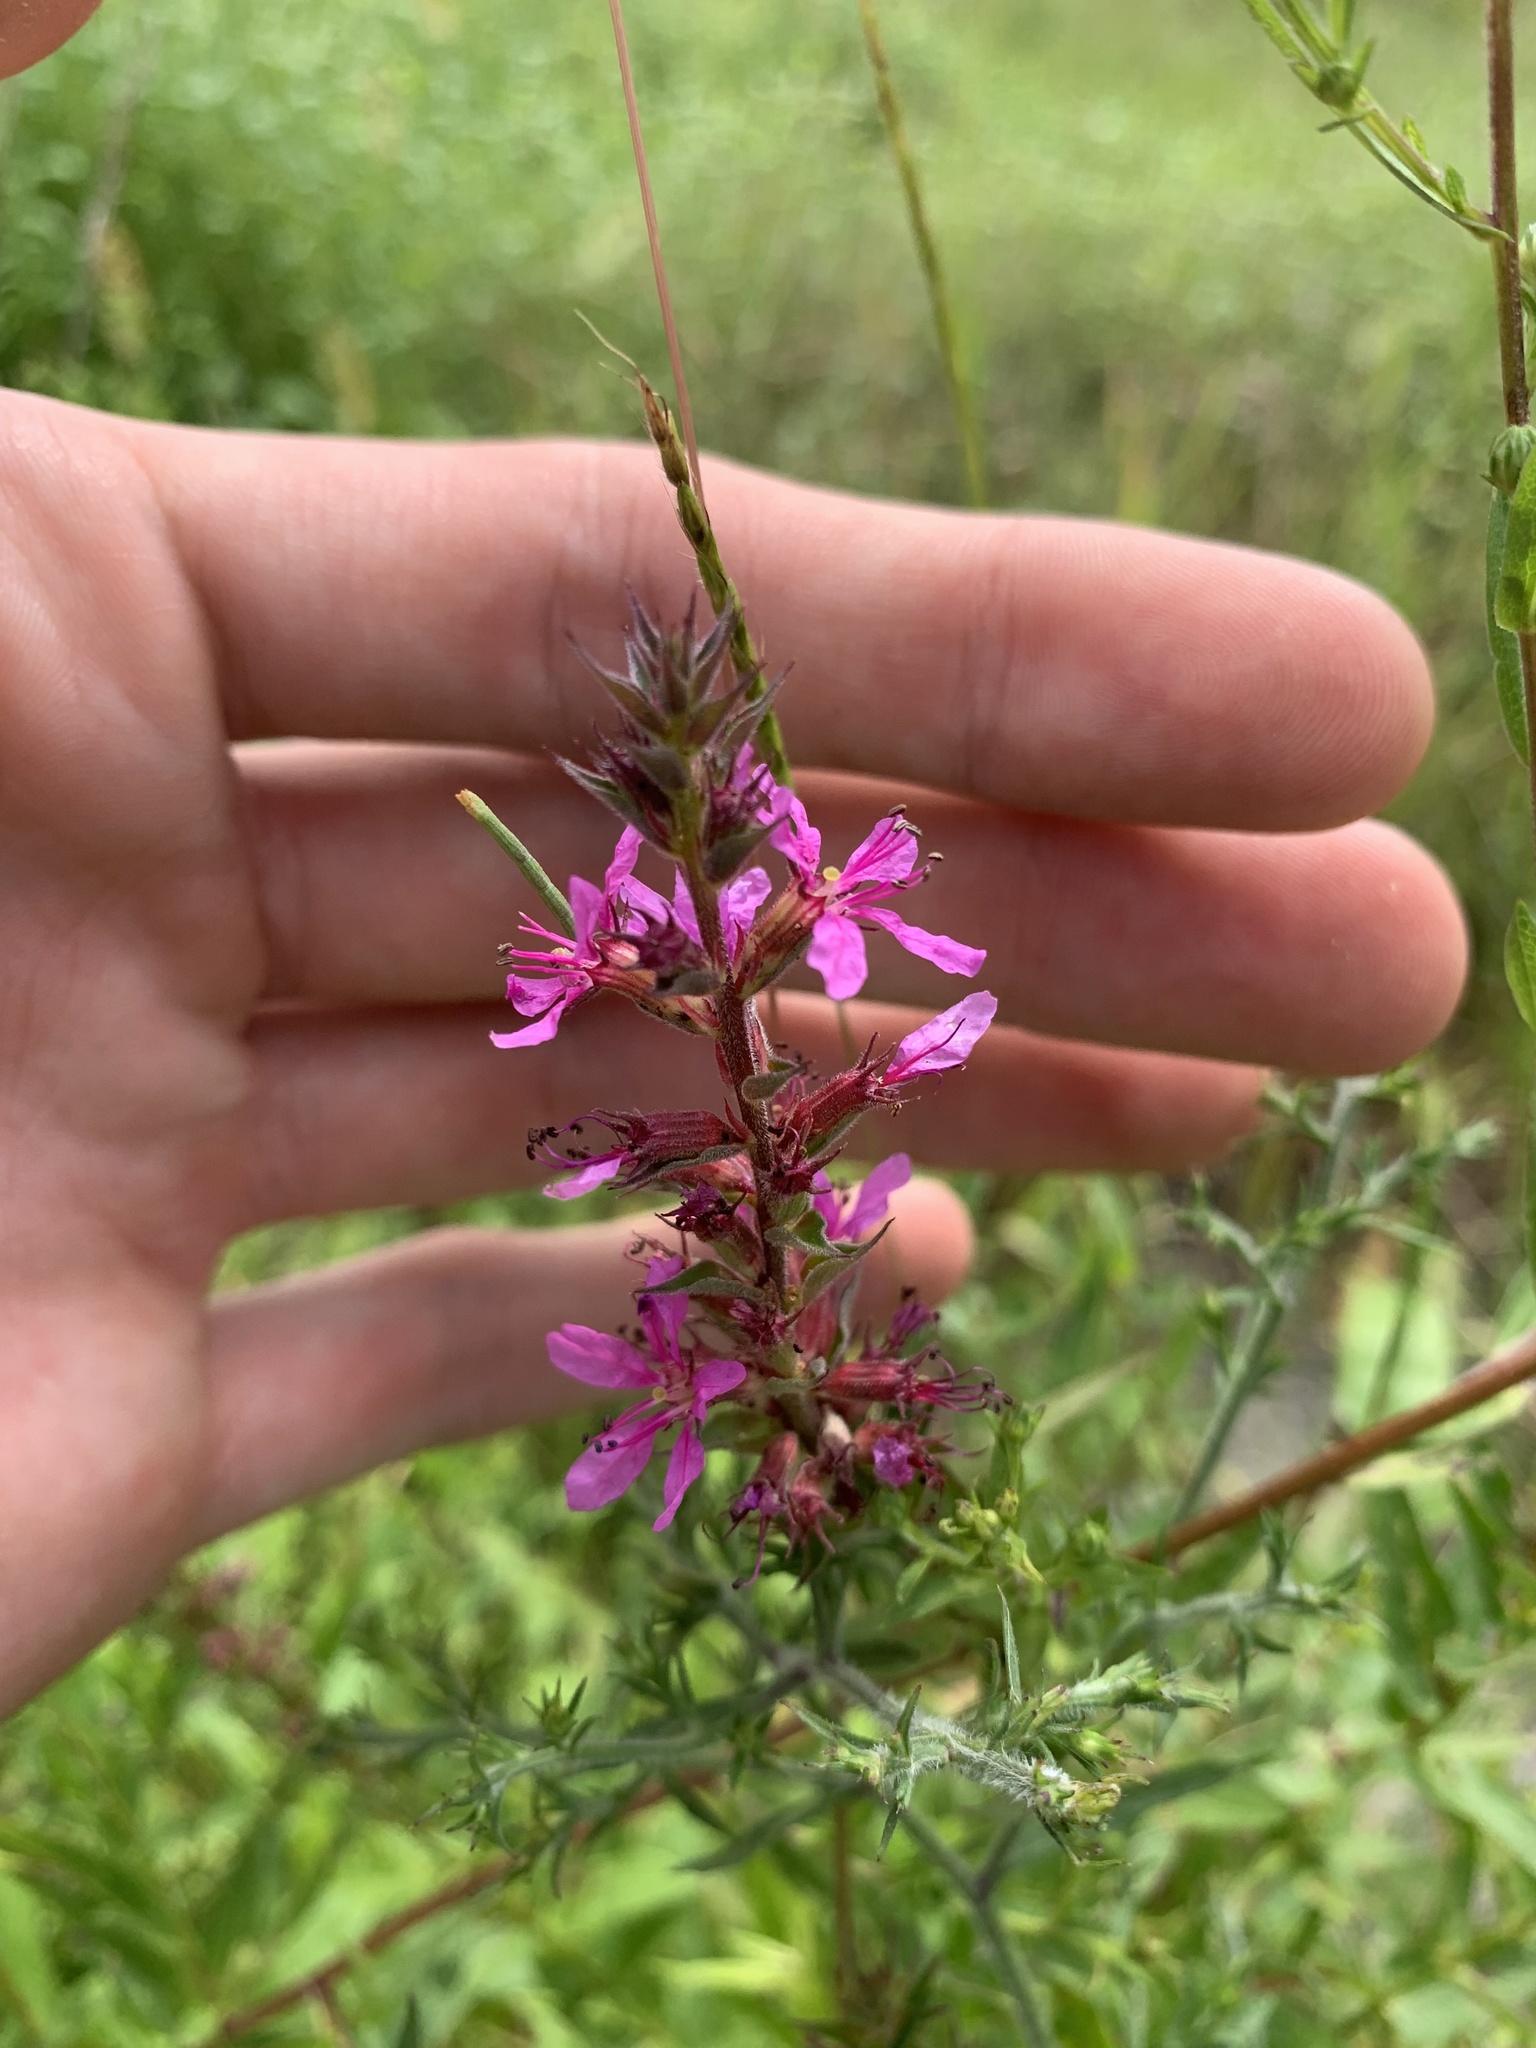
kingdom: Plantae
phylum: Tracheophyta
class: Magnoliopsida
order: Myrtales
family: Lythraceae
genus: Lythrum
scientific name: Lythrum salicaria
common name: Purple loosestrife
